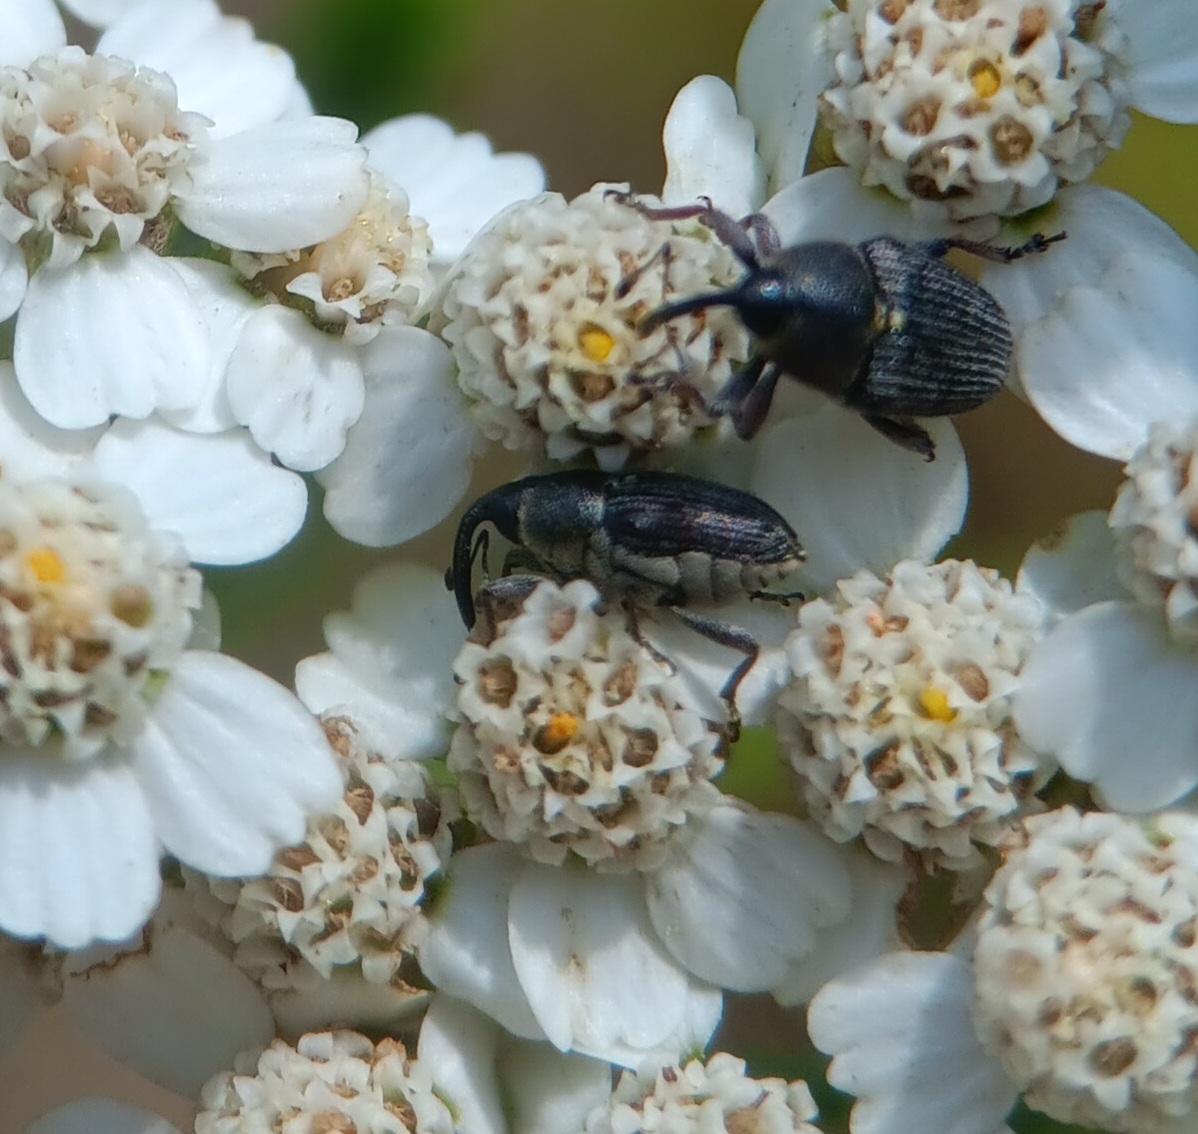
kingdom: Animalia
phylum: Arthropoda
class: Insecta
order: Coleoptera
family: Curculionidae
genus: Odontocorynus
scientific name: Odontocorynus umbellae
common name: Daisy flower weevil
